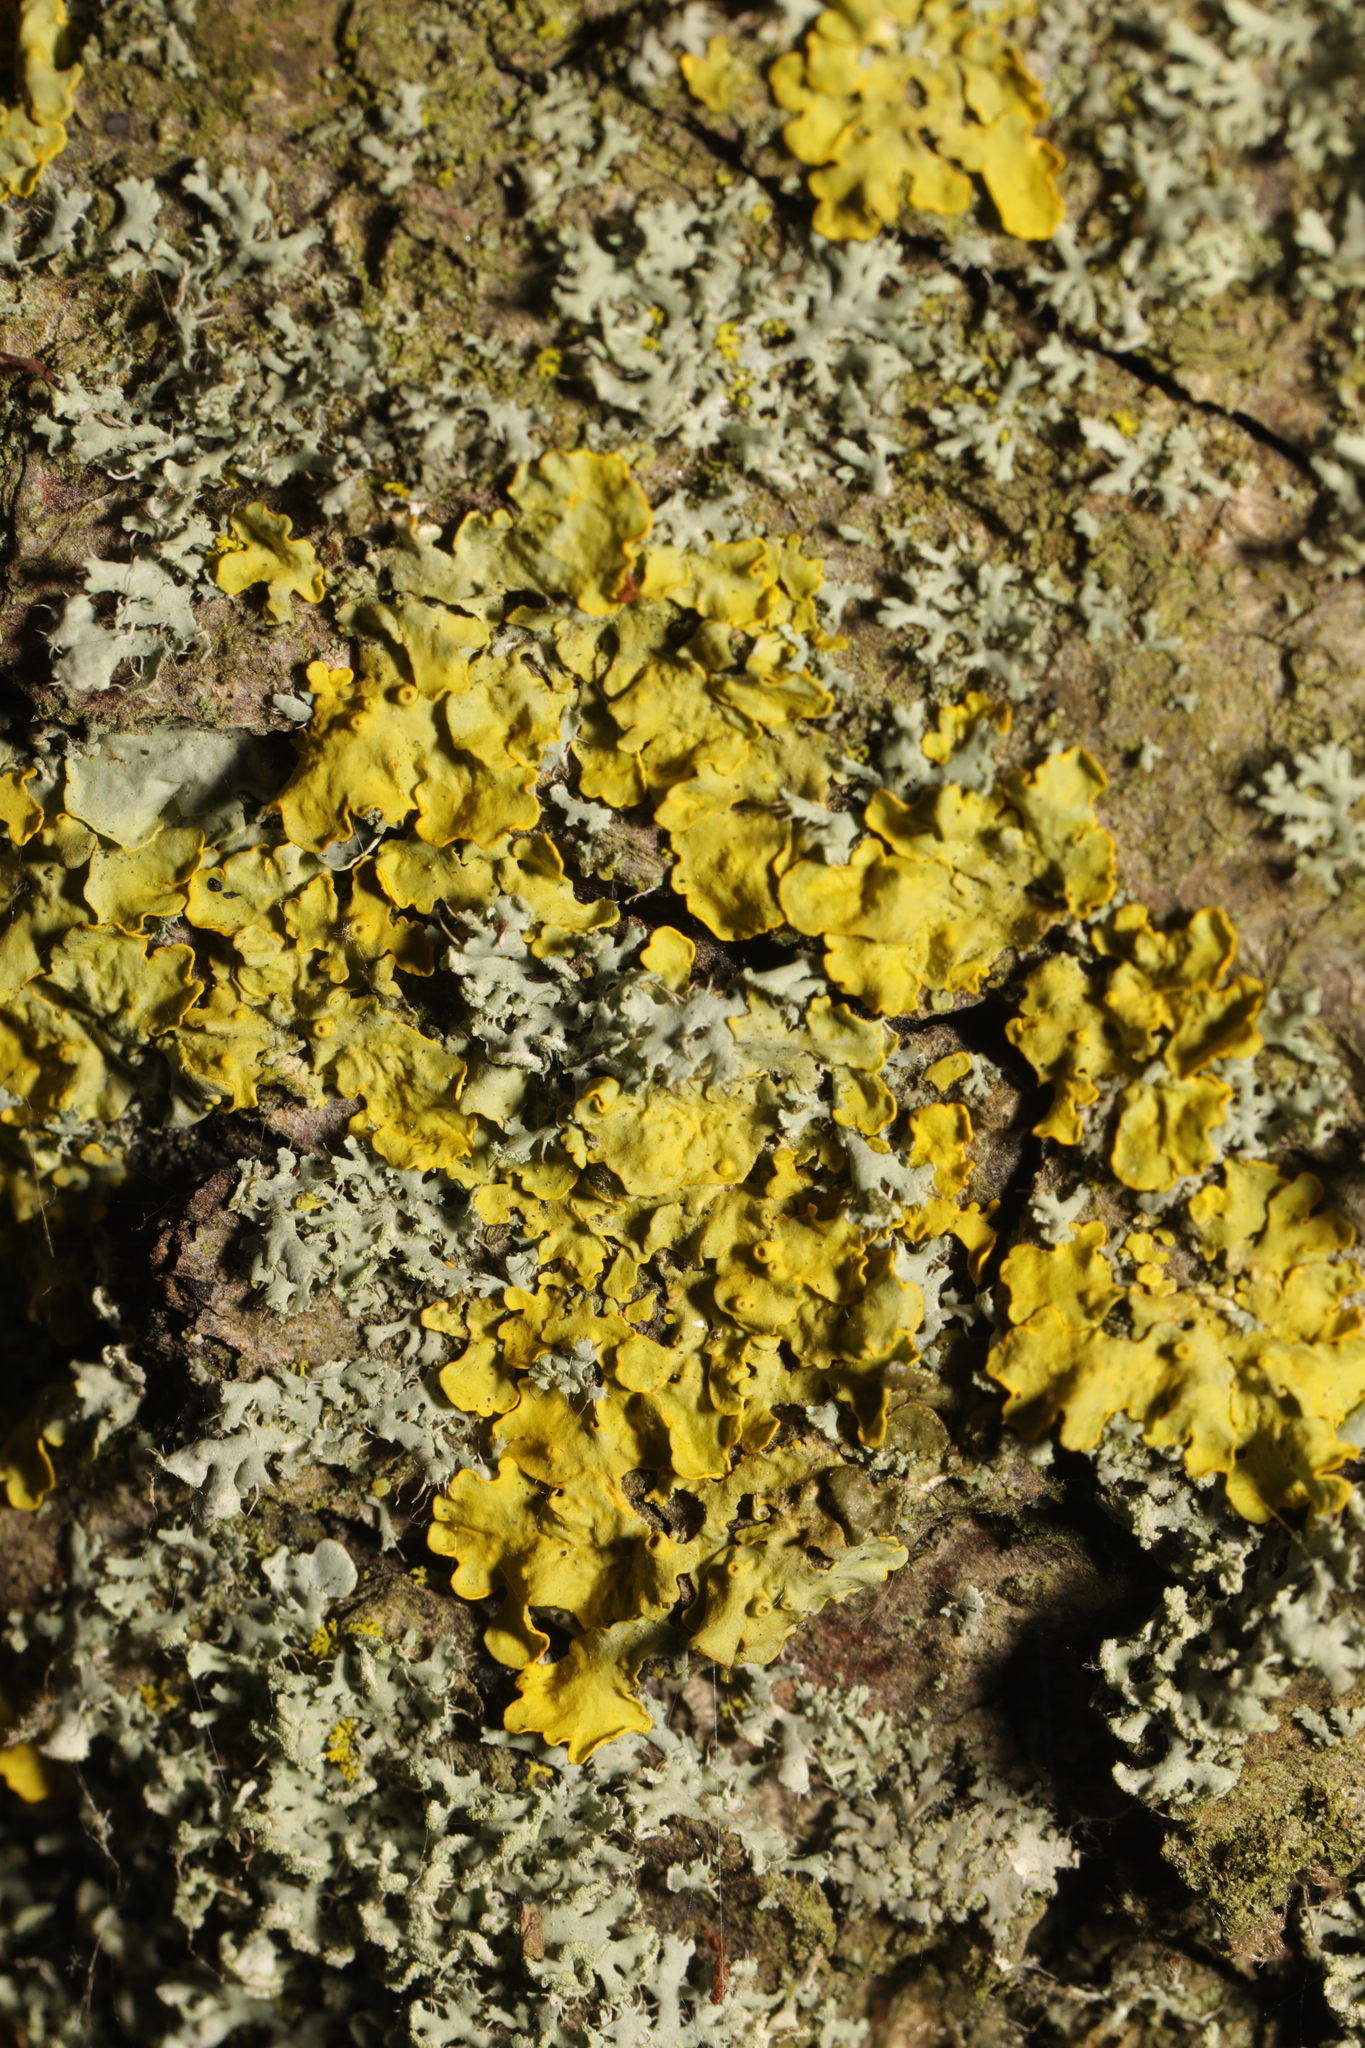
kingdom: Fungi
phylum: Ascomycota
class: Lecanoromycetes
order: Teloschistales
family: Teloschistaceae
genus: Xanthoria
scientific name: Xanthoria parietina
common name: Common orange lichen
